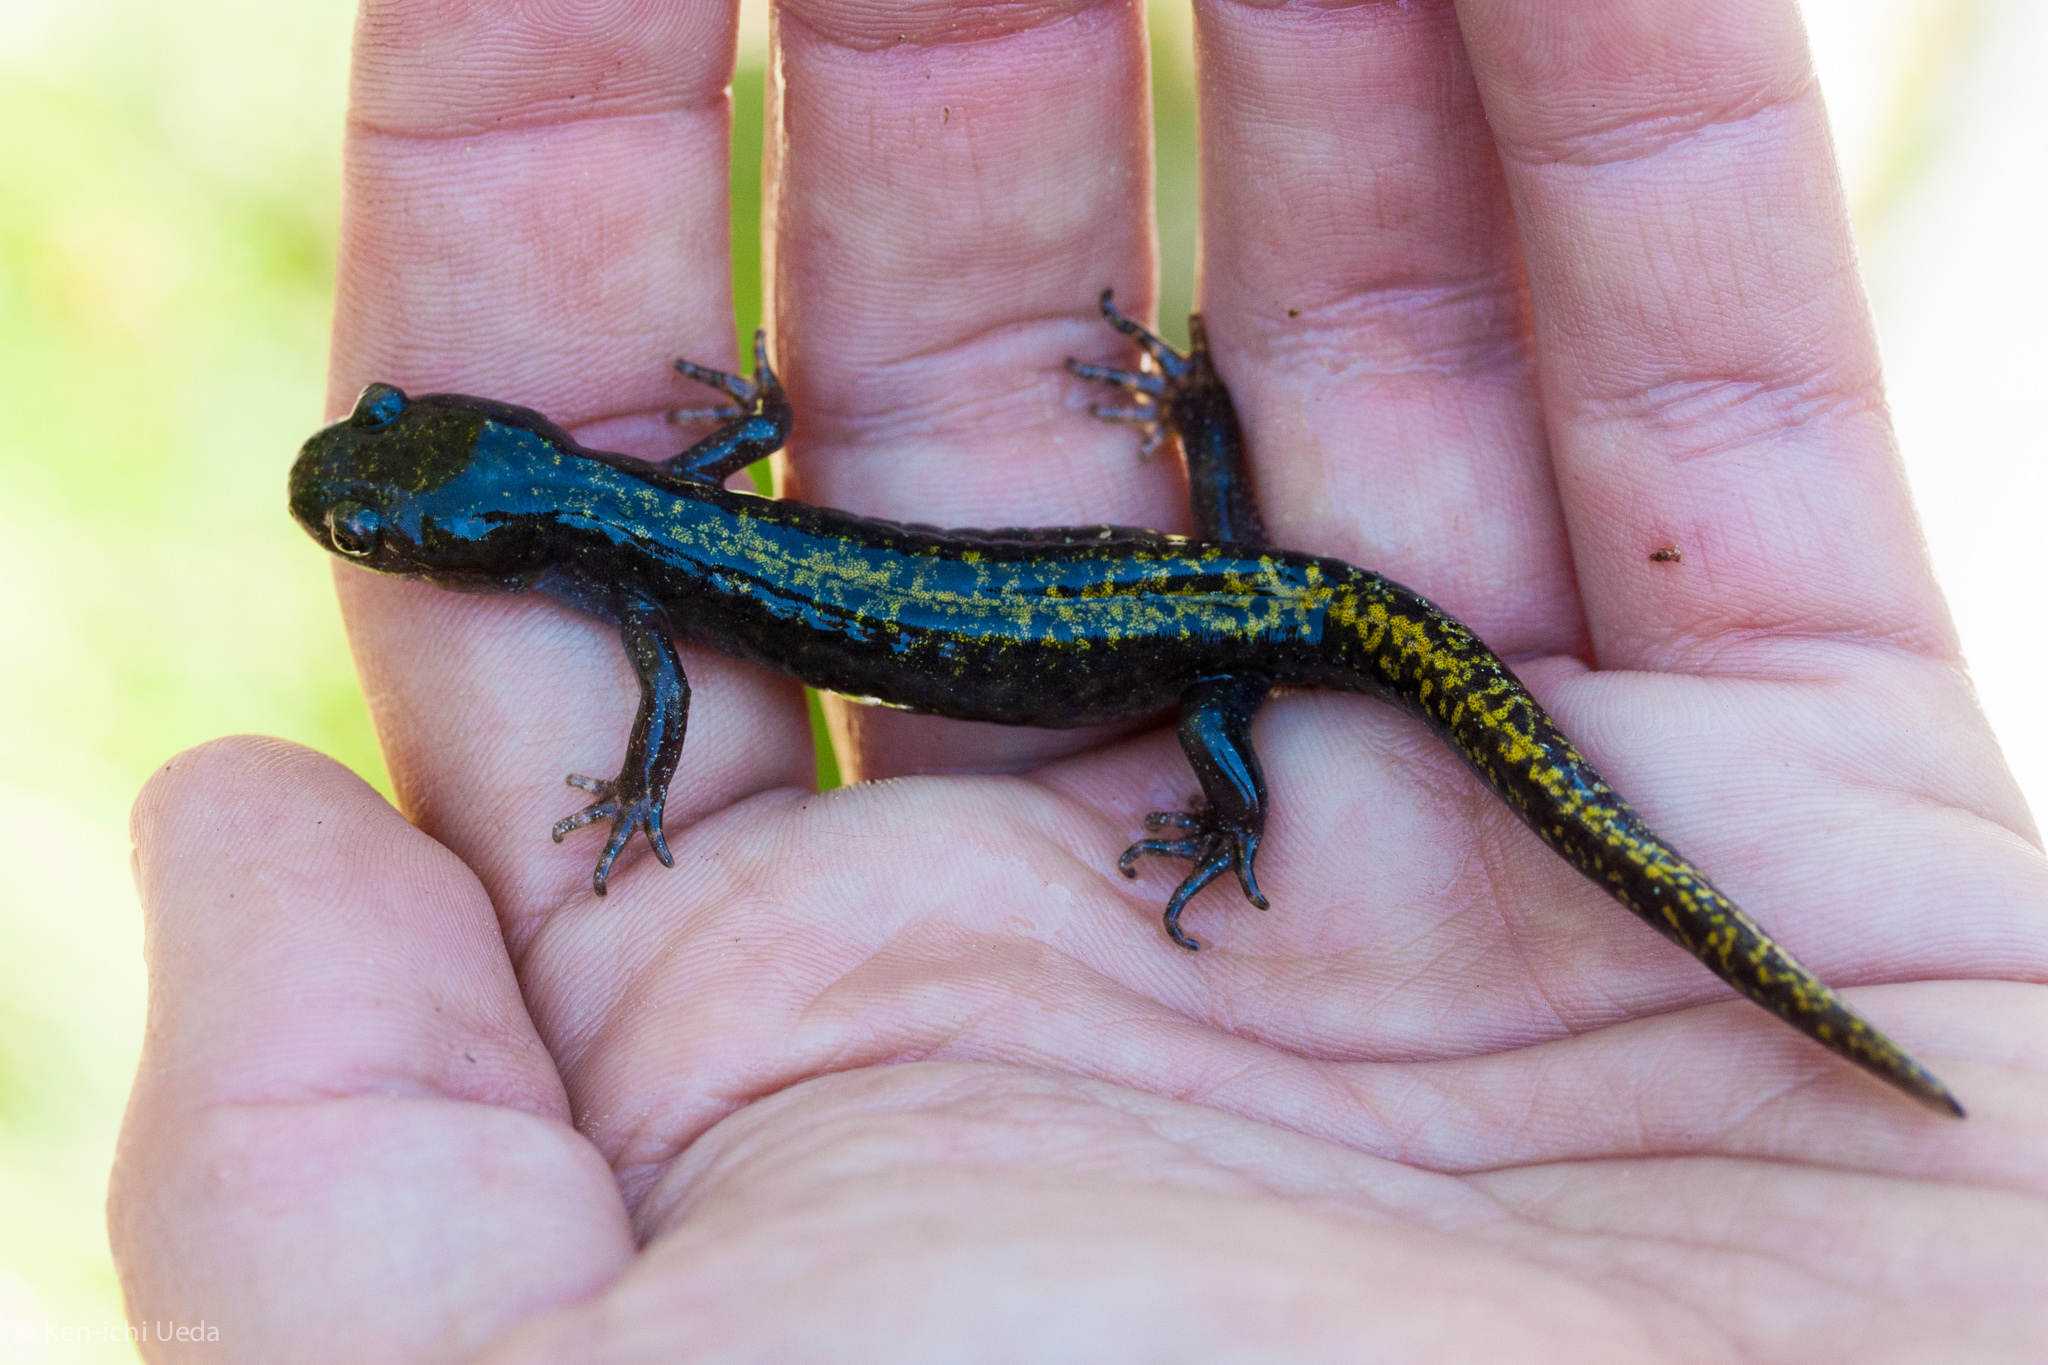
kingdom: Animalia
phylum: Chordata
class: Amphibia
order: Caudata
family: Ambystomatidae
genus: Ambystoma
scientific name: Ambystoma macrodactylum
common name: Long-toed salamander
